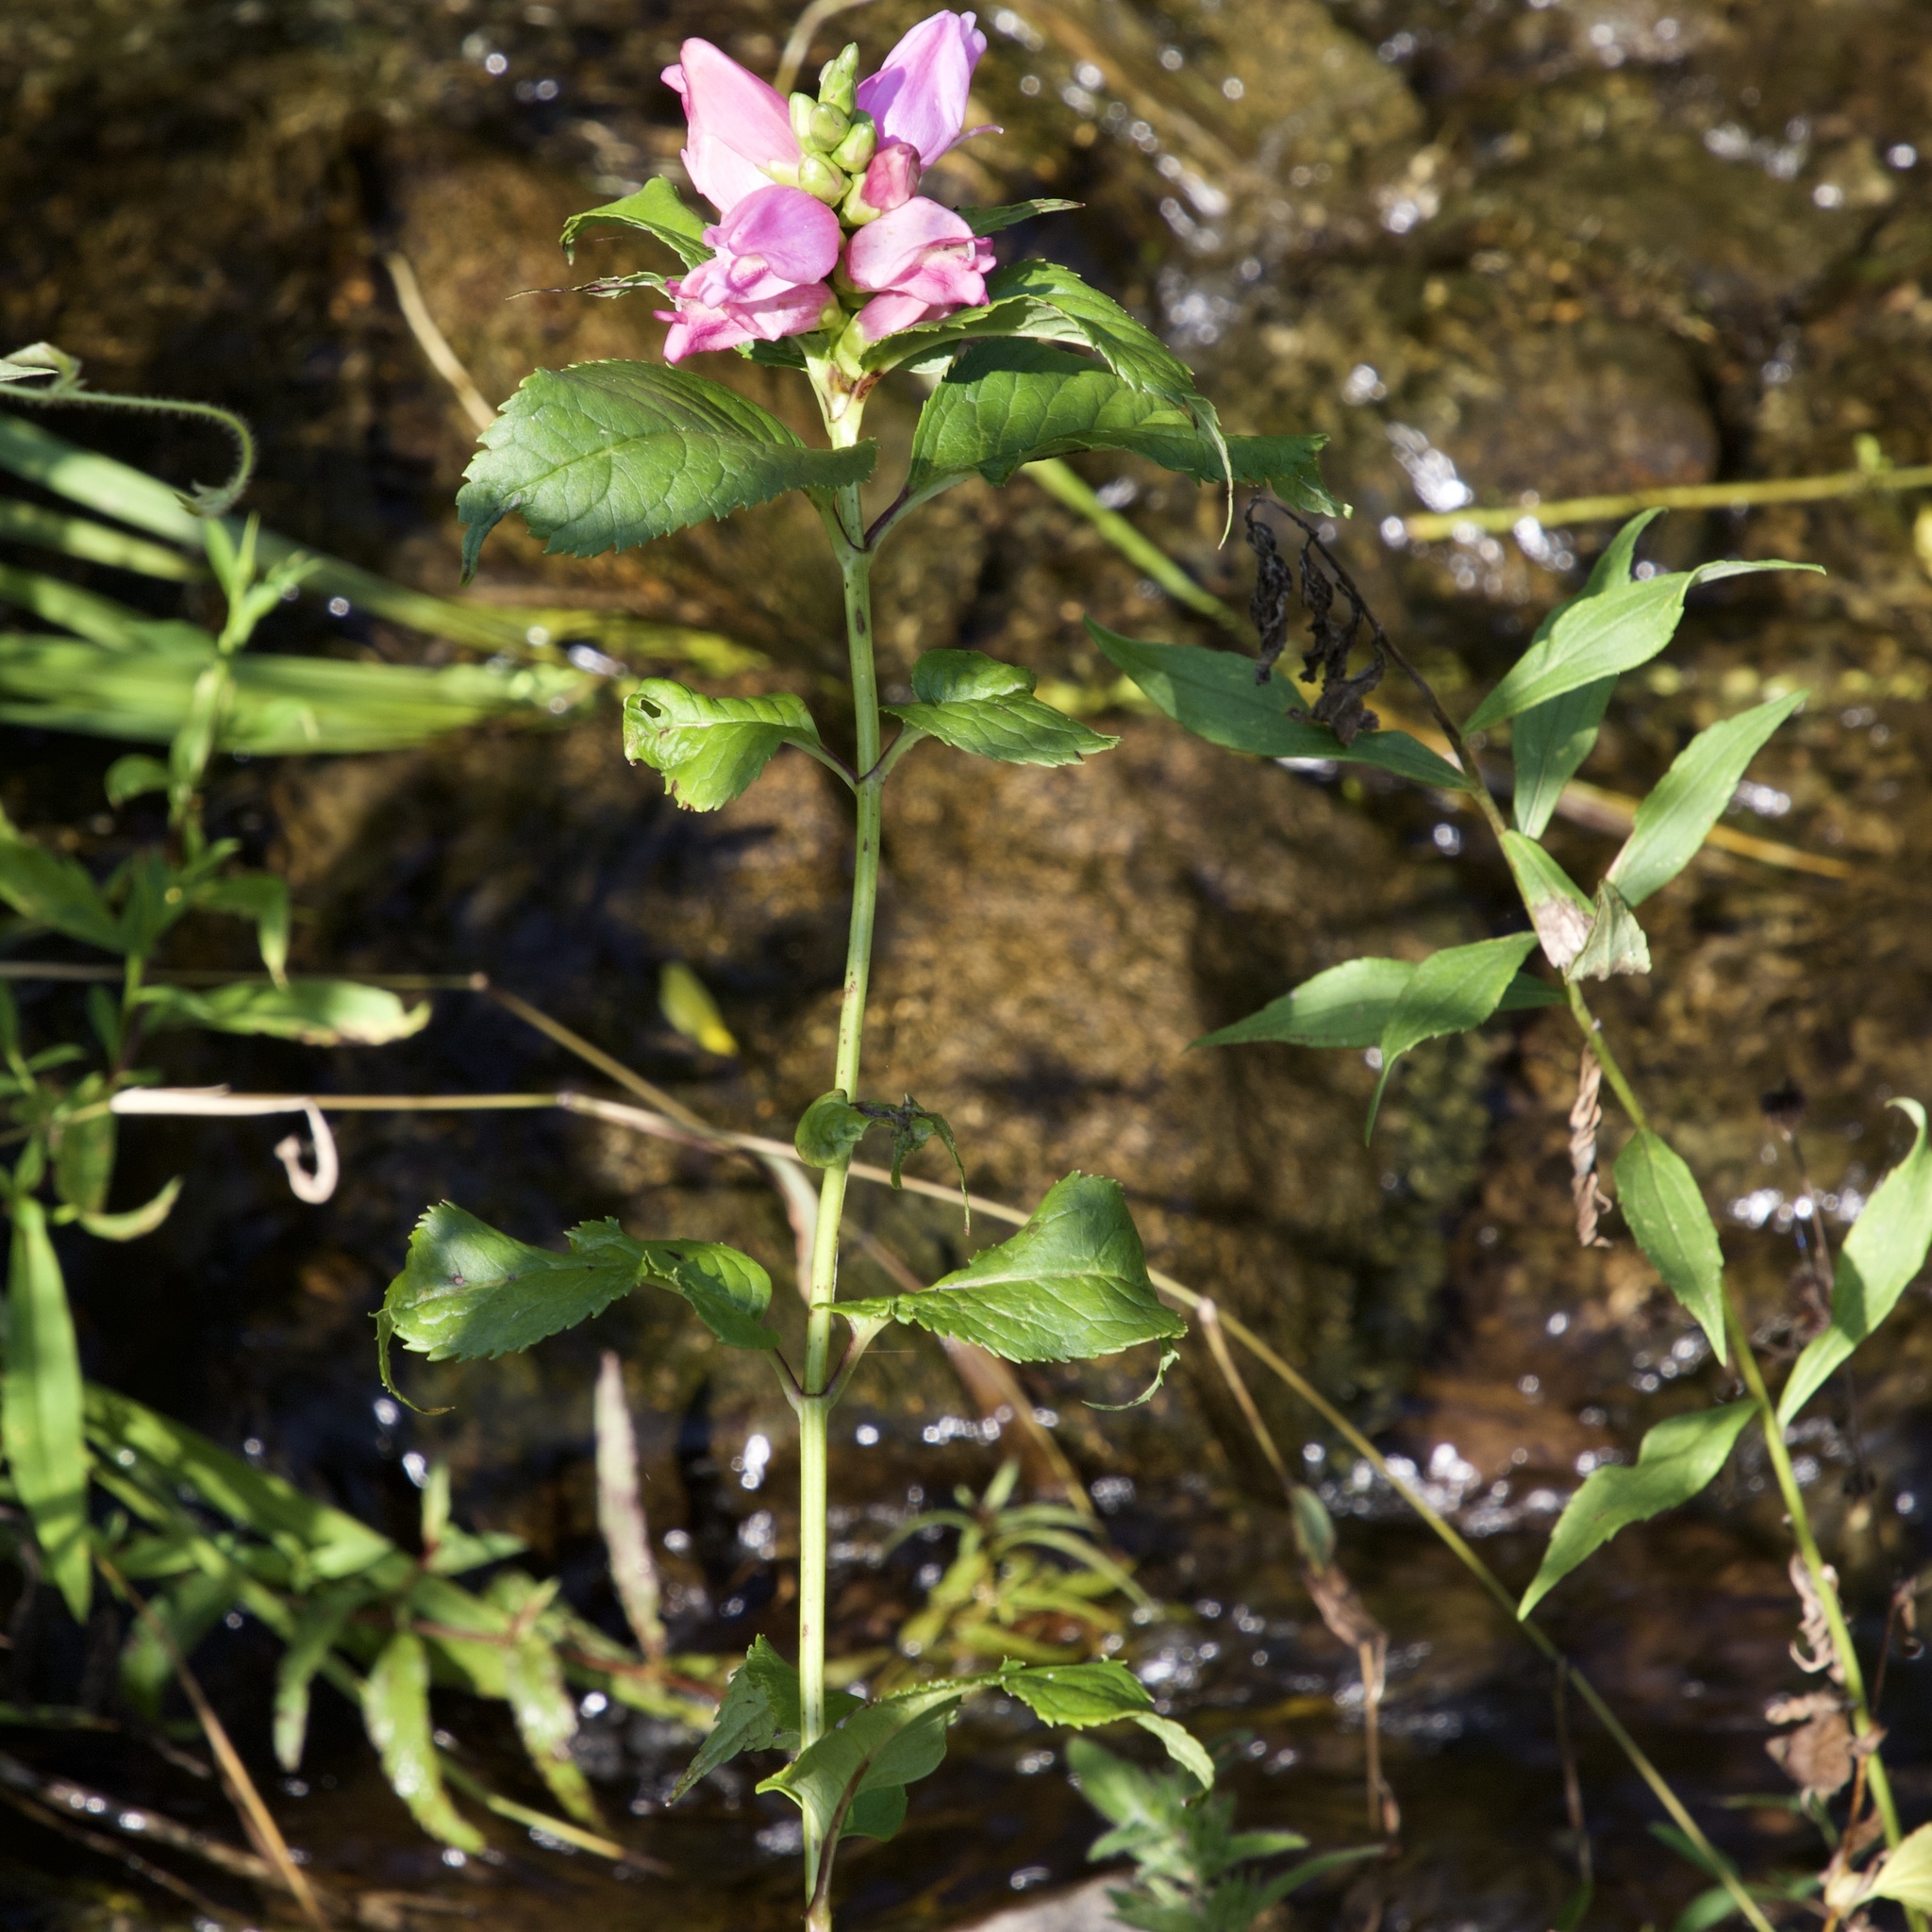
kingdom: Plantae
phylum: Tracheophyta
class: Magnoliopsida
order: Lamiales
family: Plantaginaceae
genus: Chelone
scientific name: Chelone lyonii
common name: Pink turtlehead
